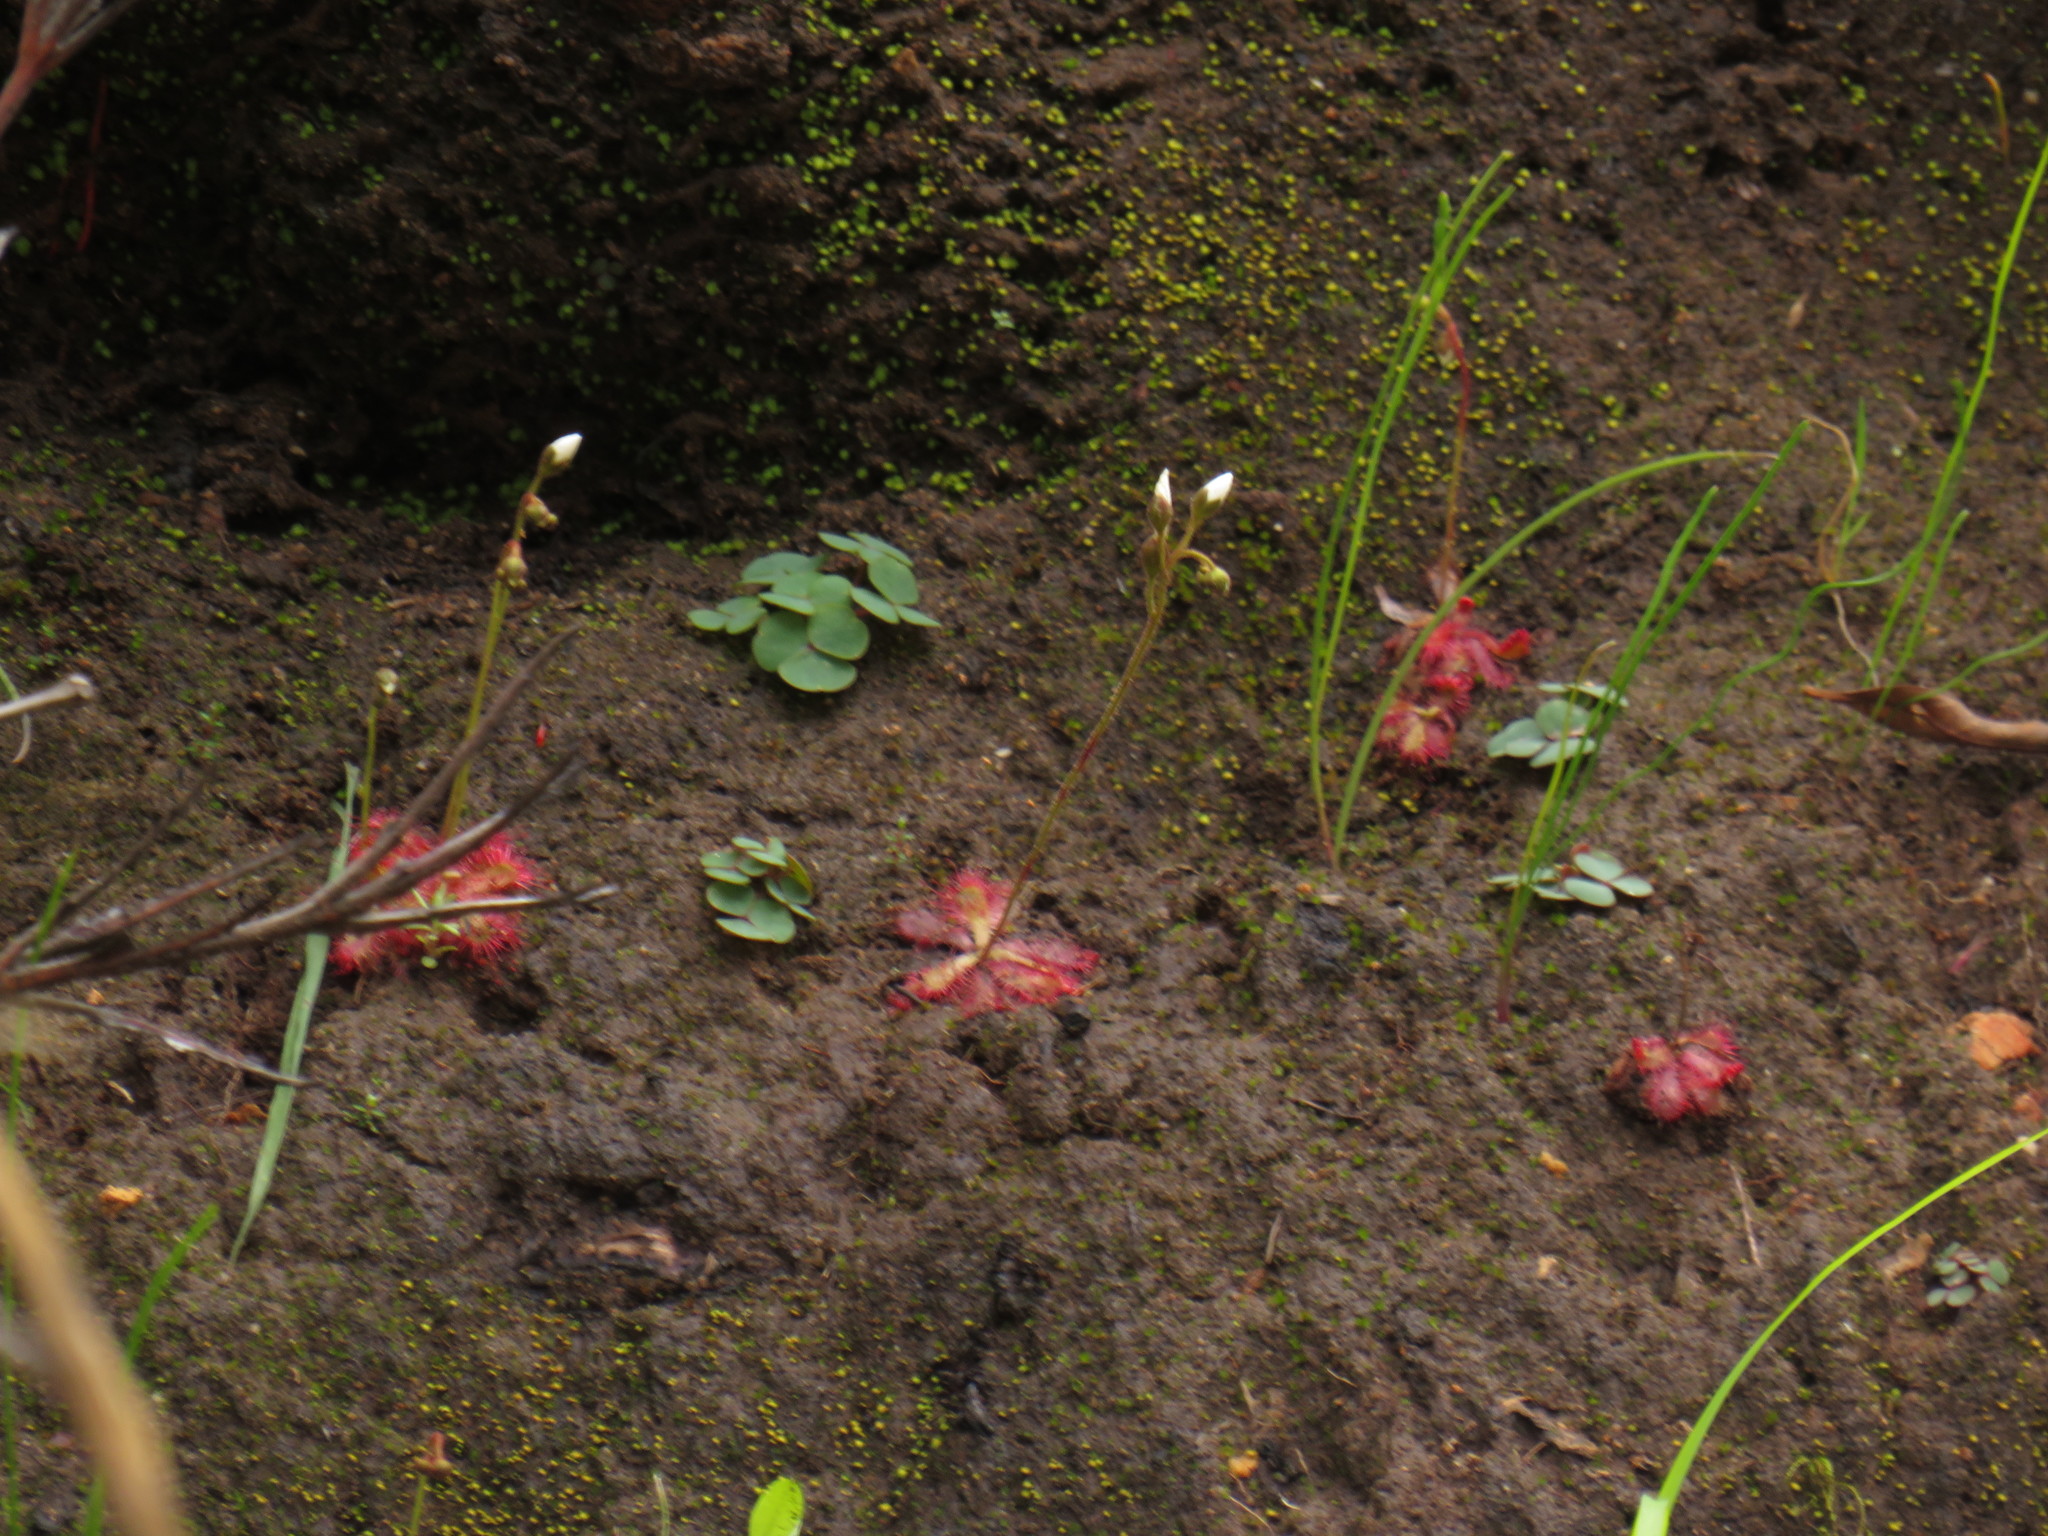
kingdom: Plantae
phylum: Tracheophyta
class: Magnoliopsida
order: Caryophyllales
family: Droseraceae
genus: Drosera
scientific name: Drosera trinervia
